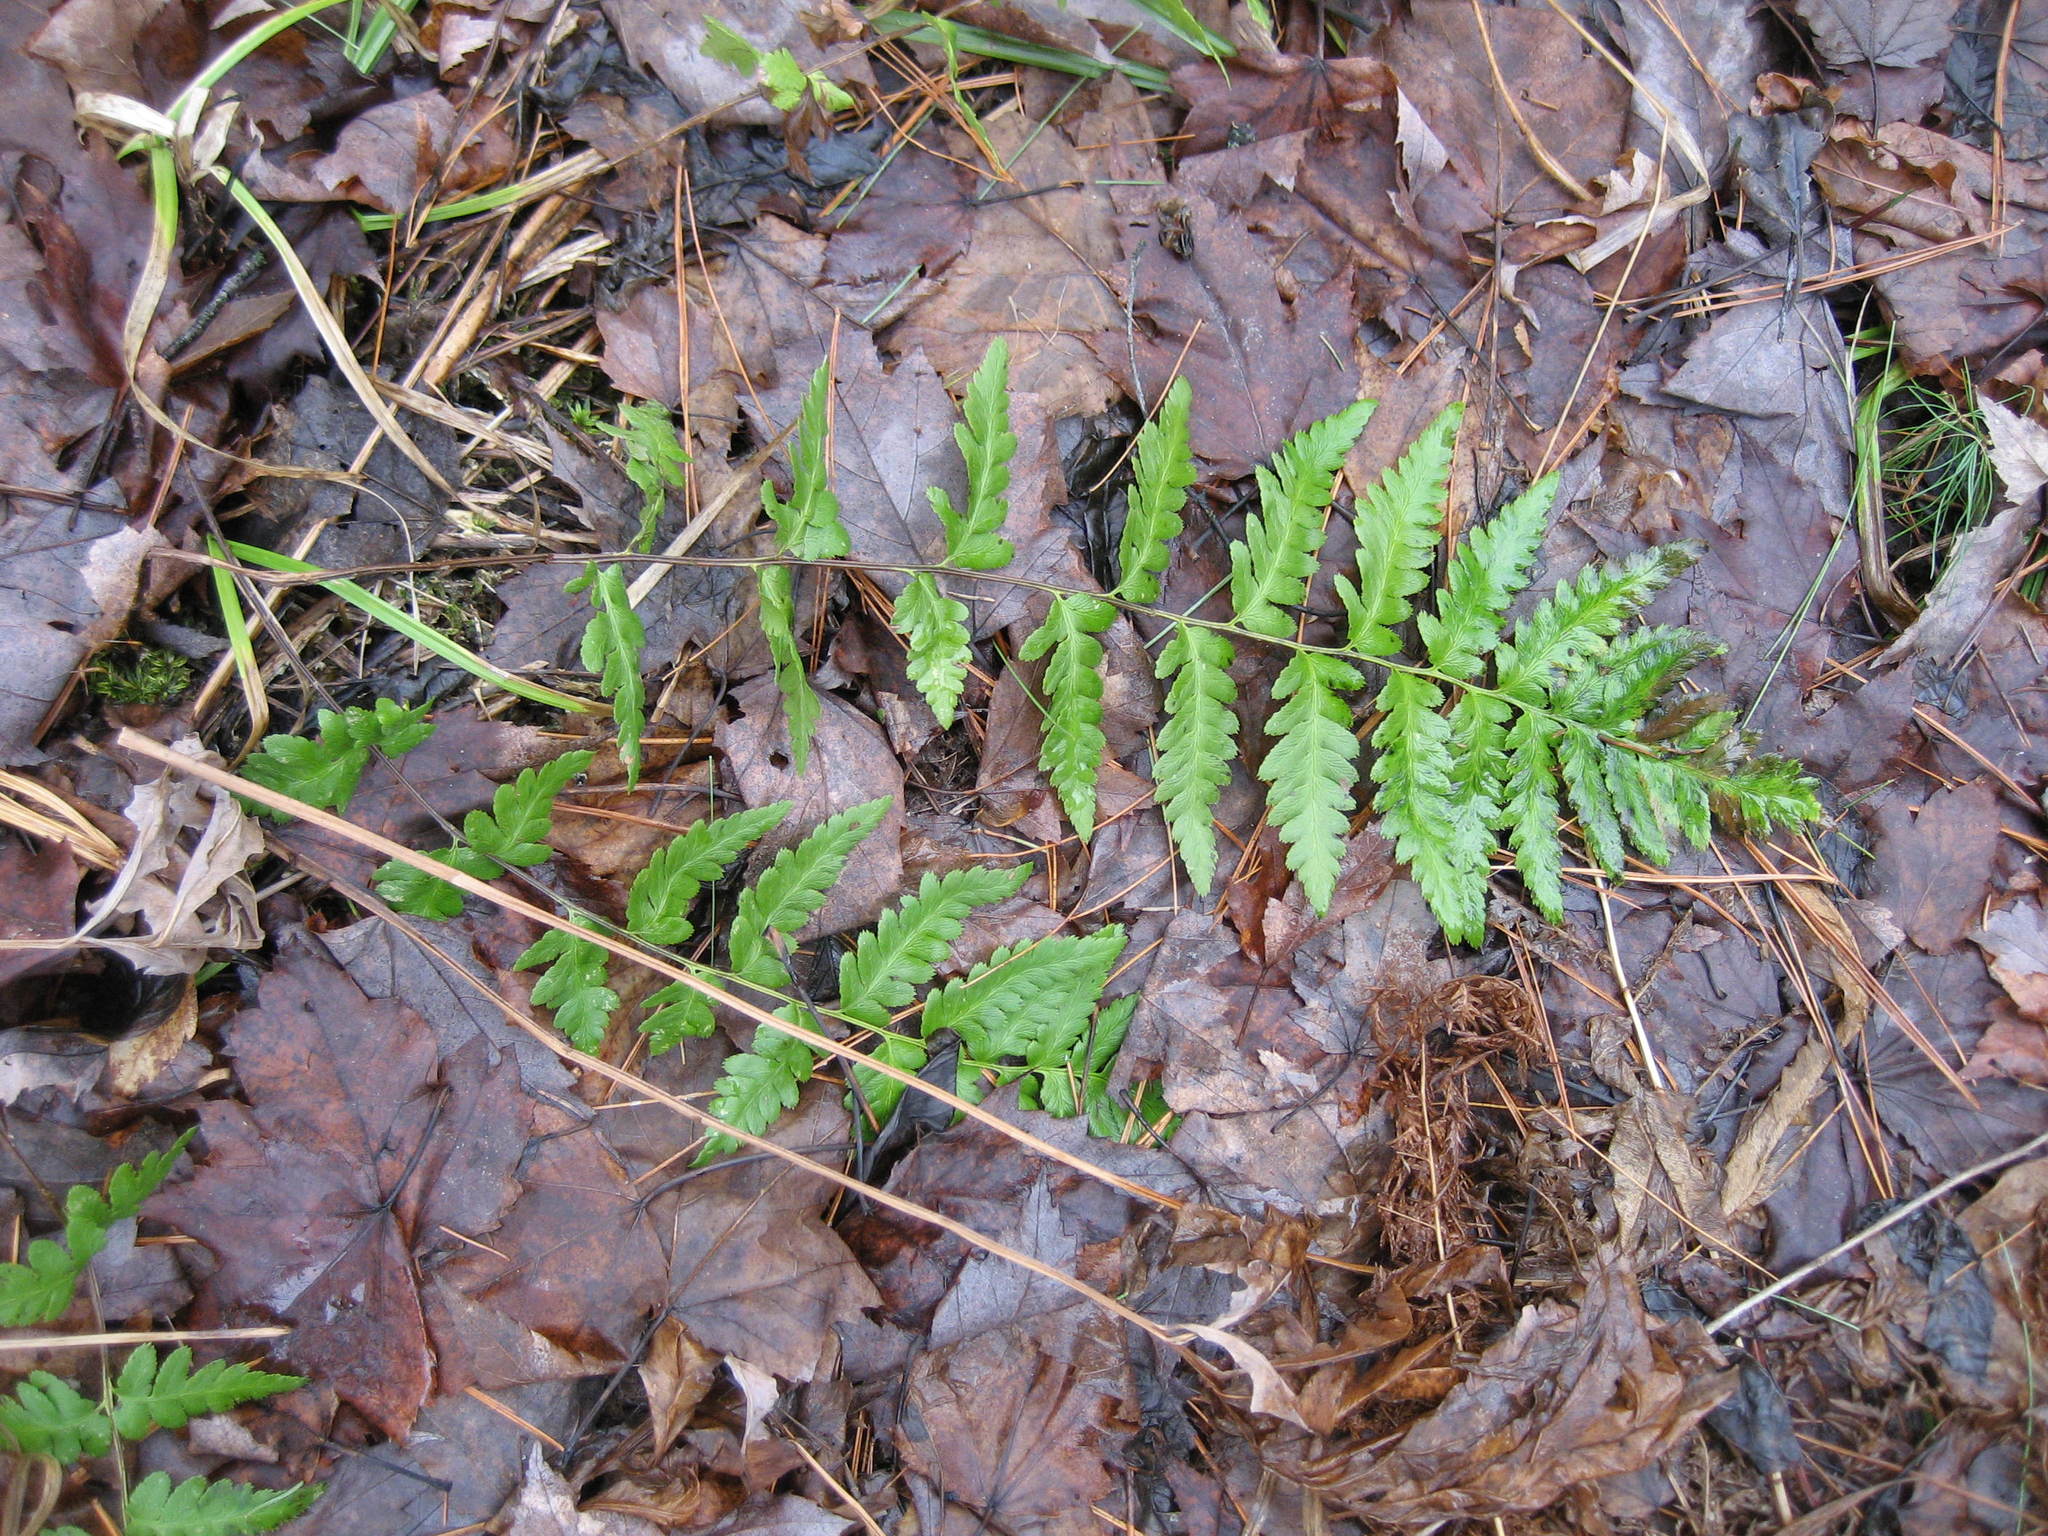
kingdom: Plantae
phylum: Tracheophyta
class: Polypodiopsida
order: Polypodiales
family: Dryopteridaceae
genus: Dryopteris
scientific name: Dryopteris cristata
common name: Crested wood fern
